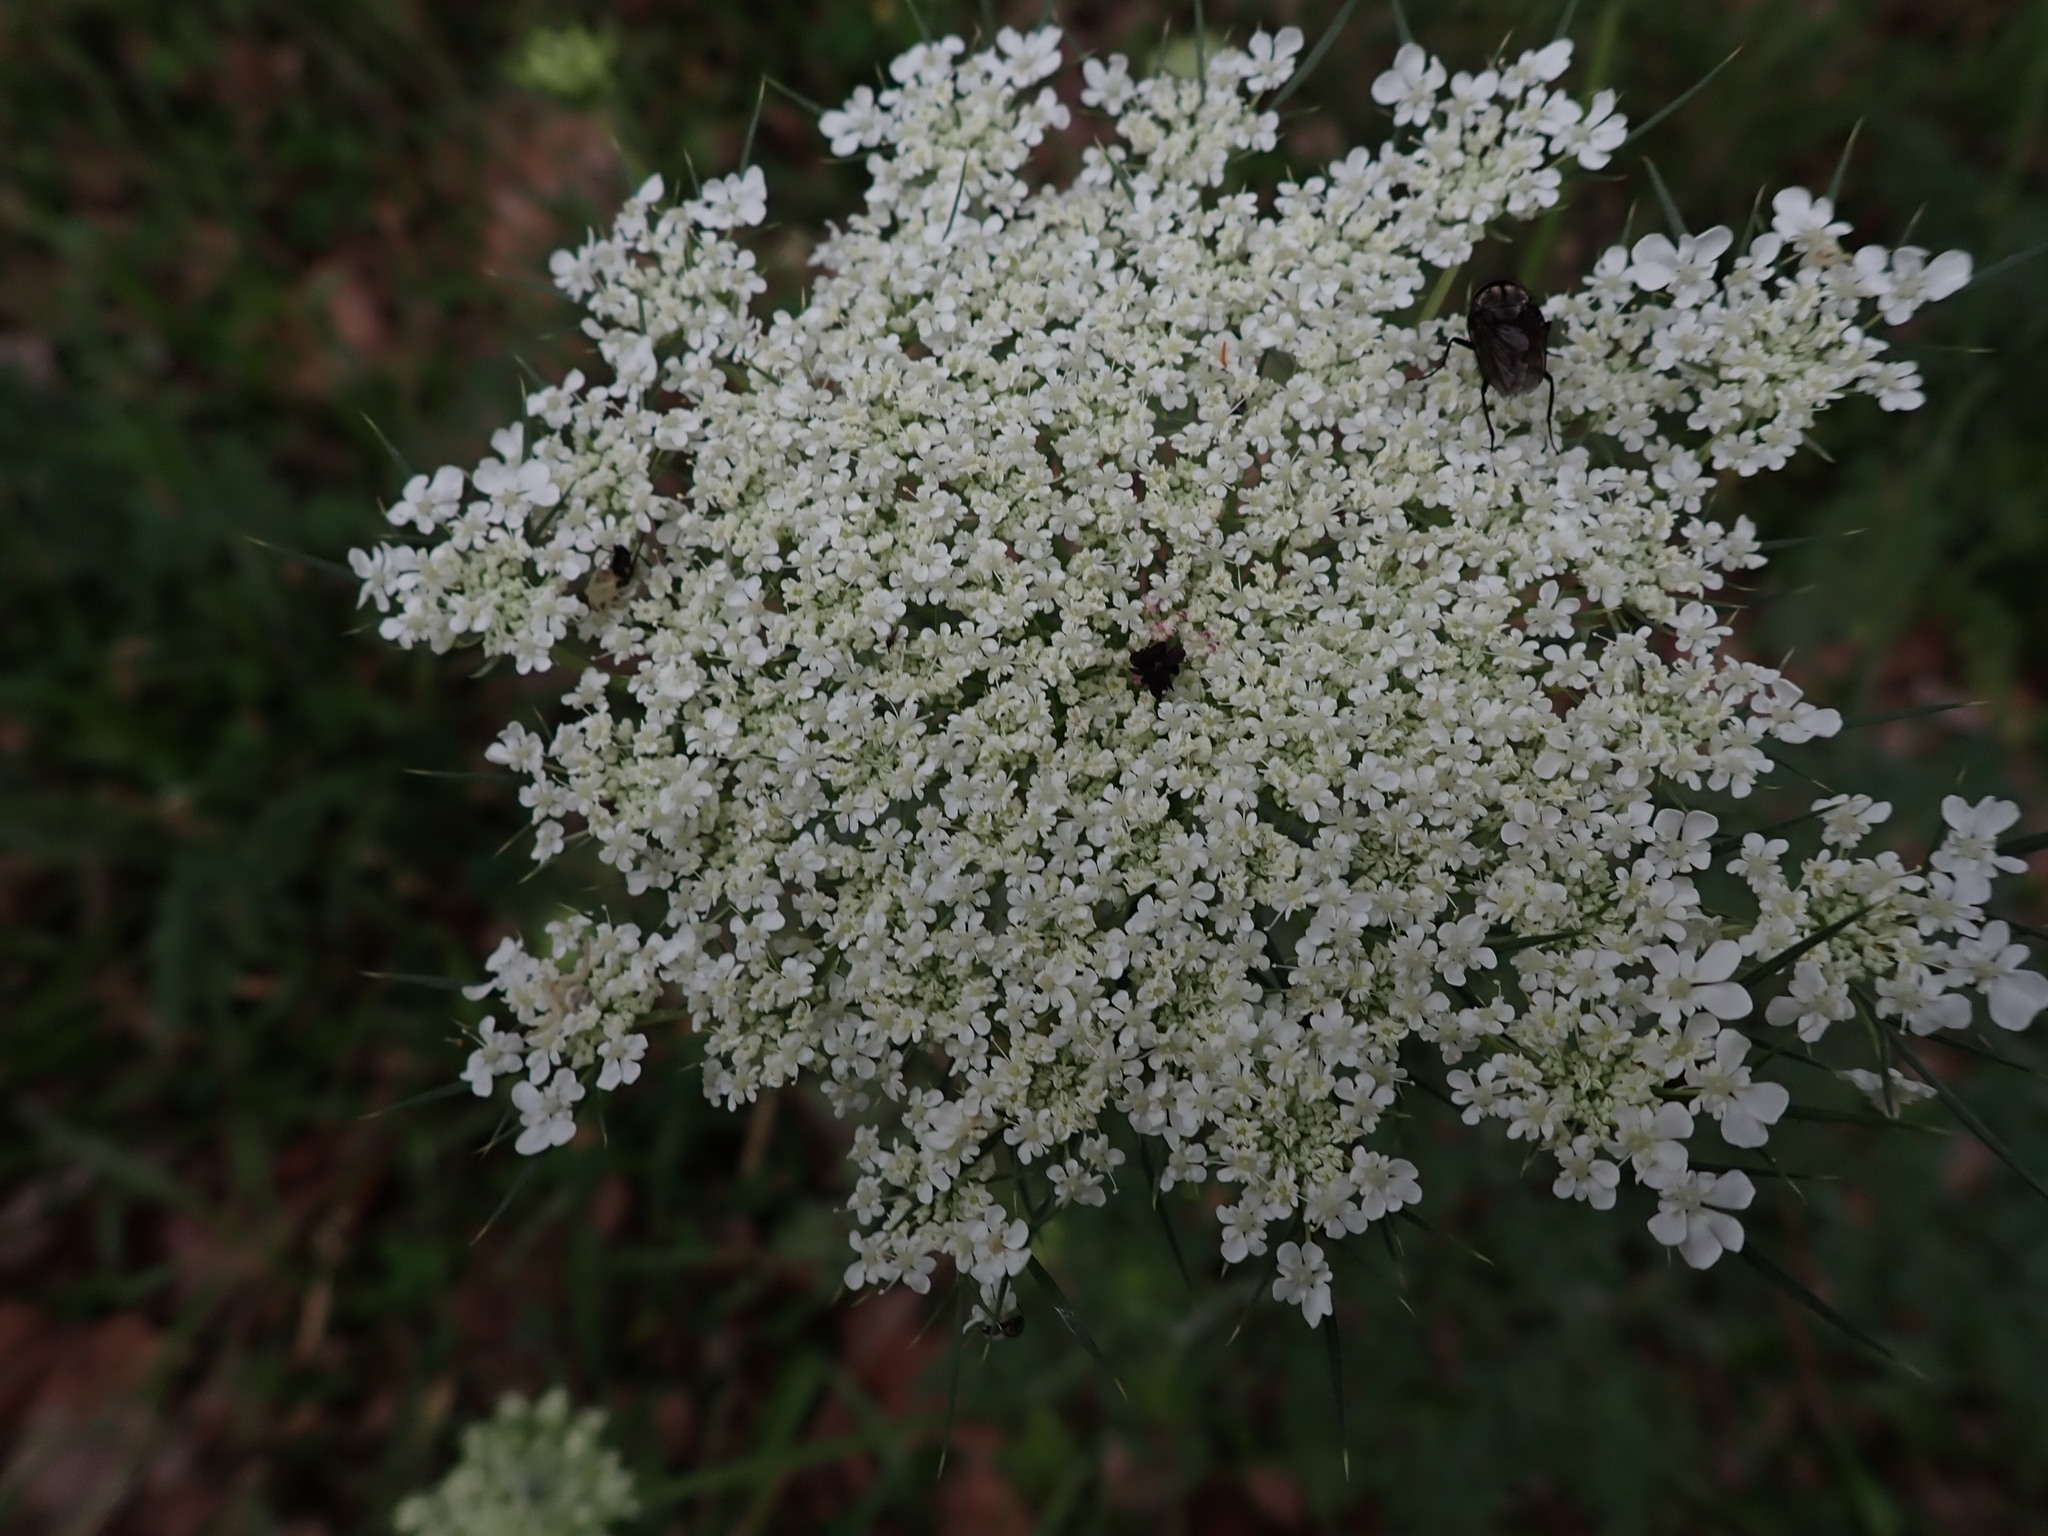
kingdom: Plantae
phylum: Tracheophyta
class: Magnoliopsida
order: Apiales
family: Apiaceae
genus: Daucus
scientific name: Daucus carota
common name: Wild carrot
